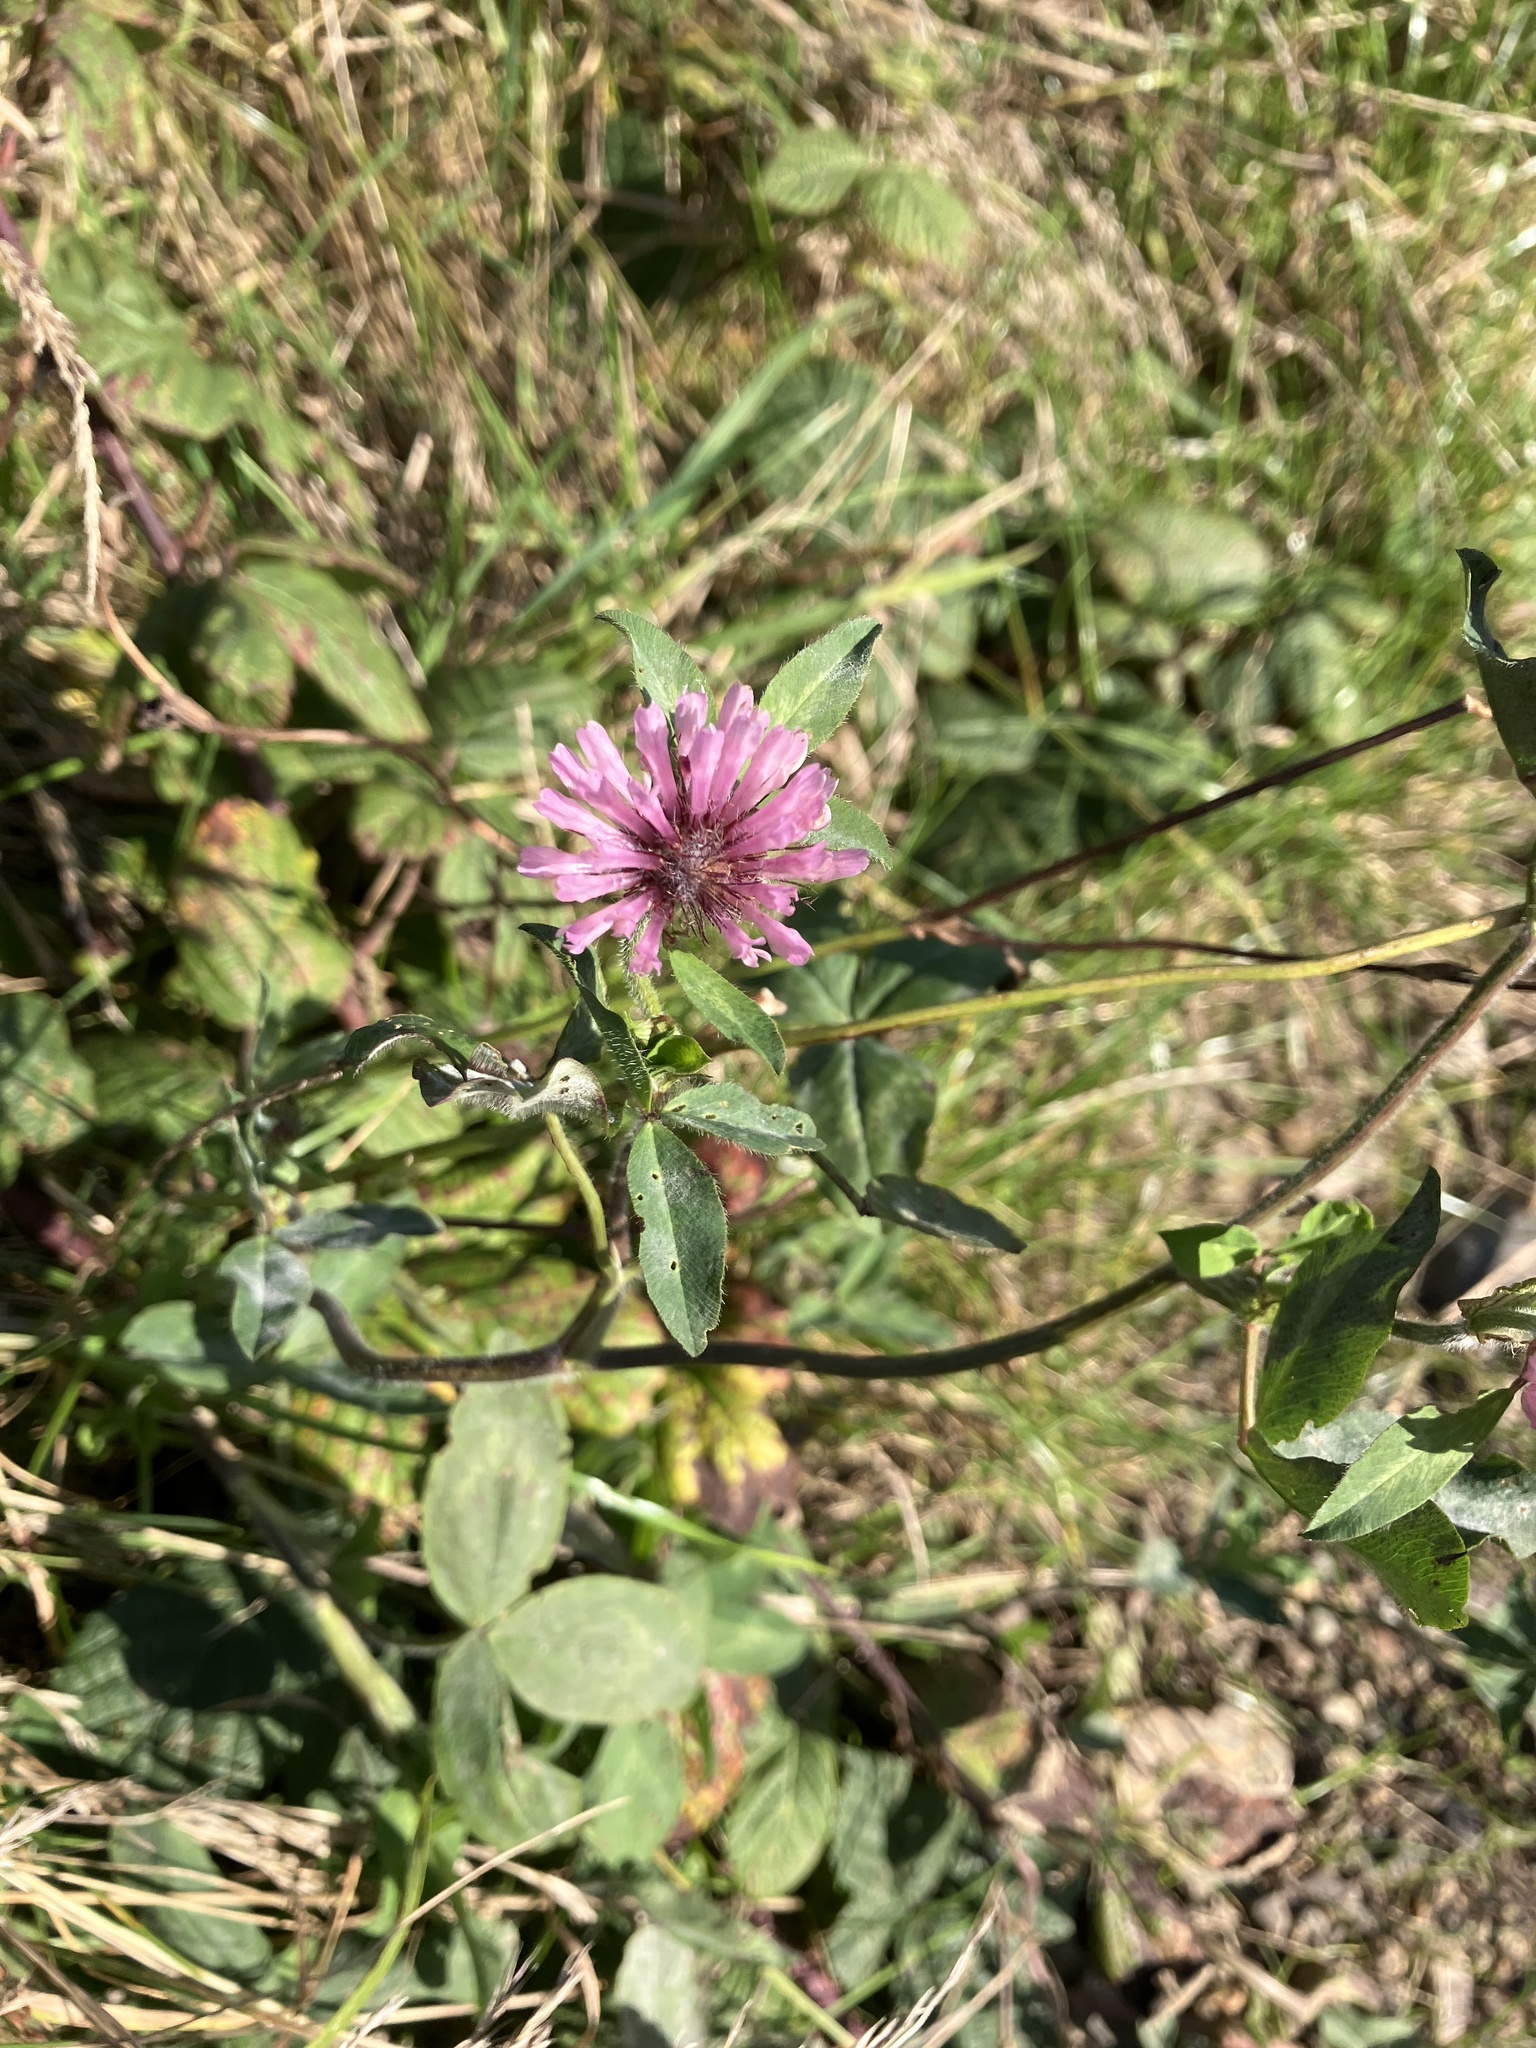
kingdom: Plantae
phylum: Tracheophyta
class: Magnoliopsida
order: Fabales
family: Fabaceae
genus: Trifolium
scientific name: Trifolium pratense
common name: Red clover
